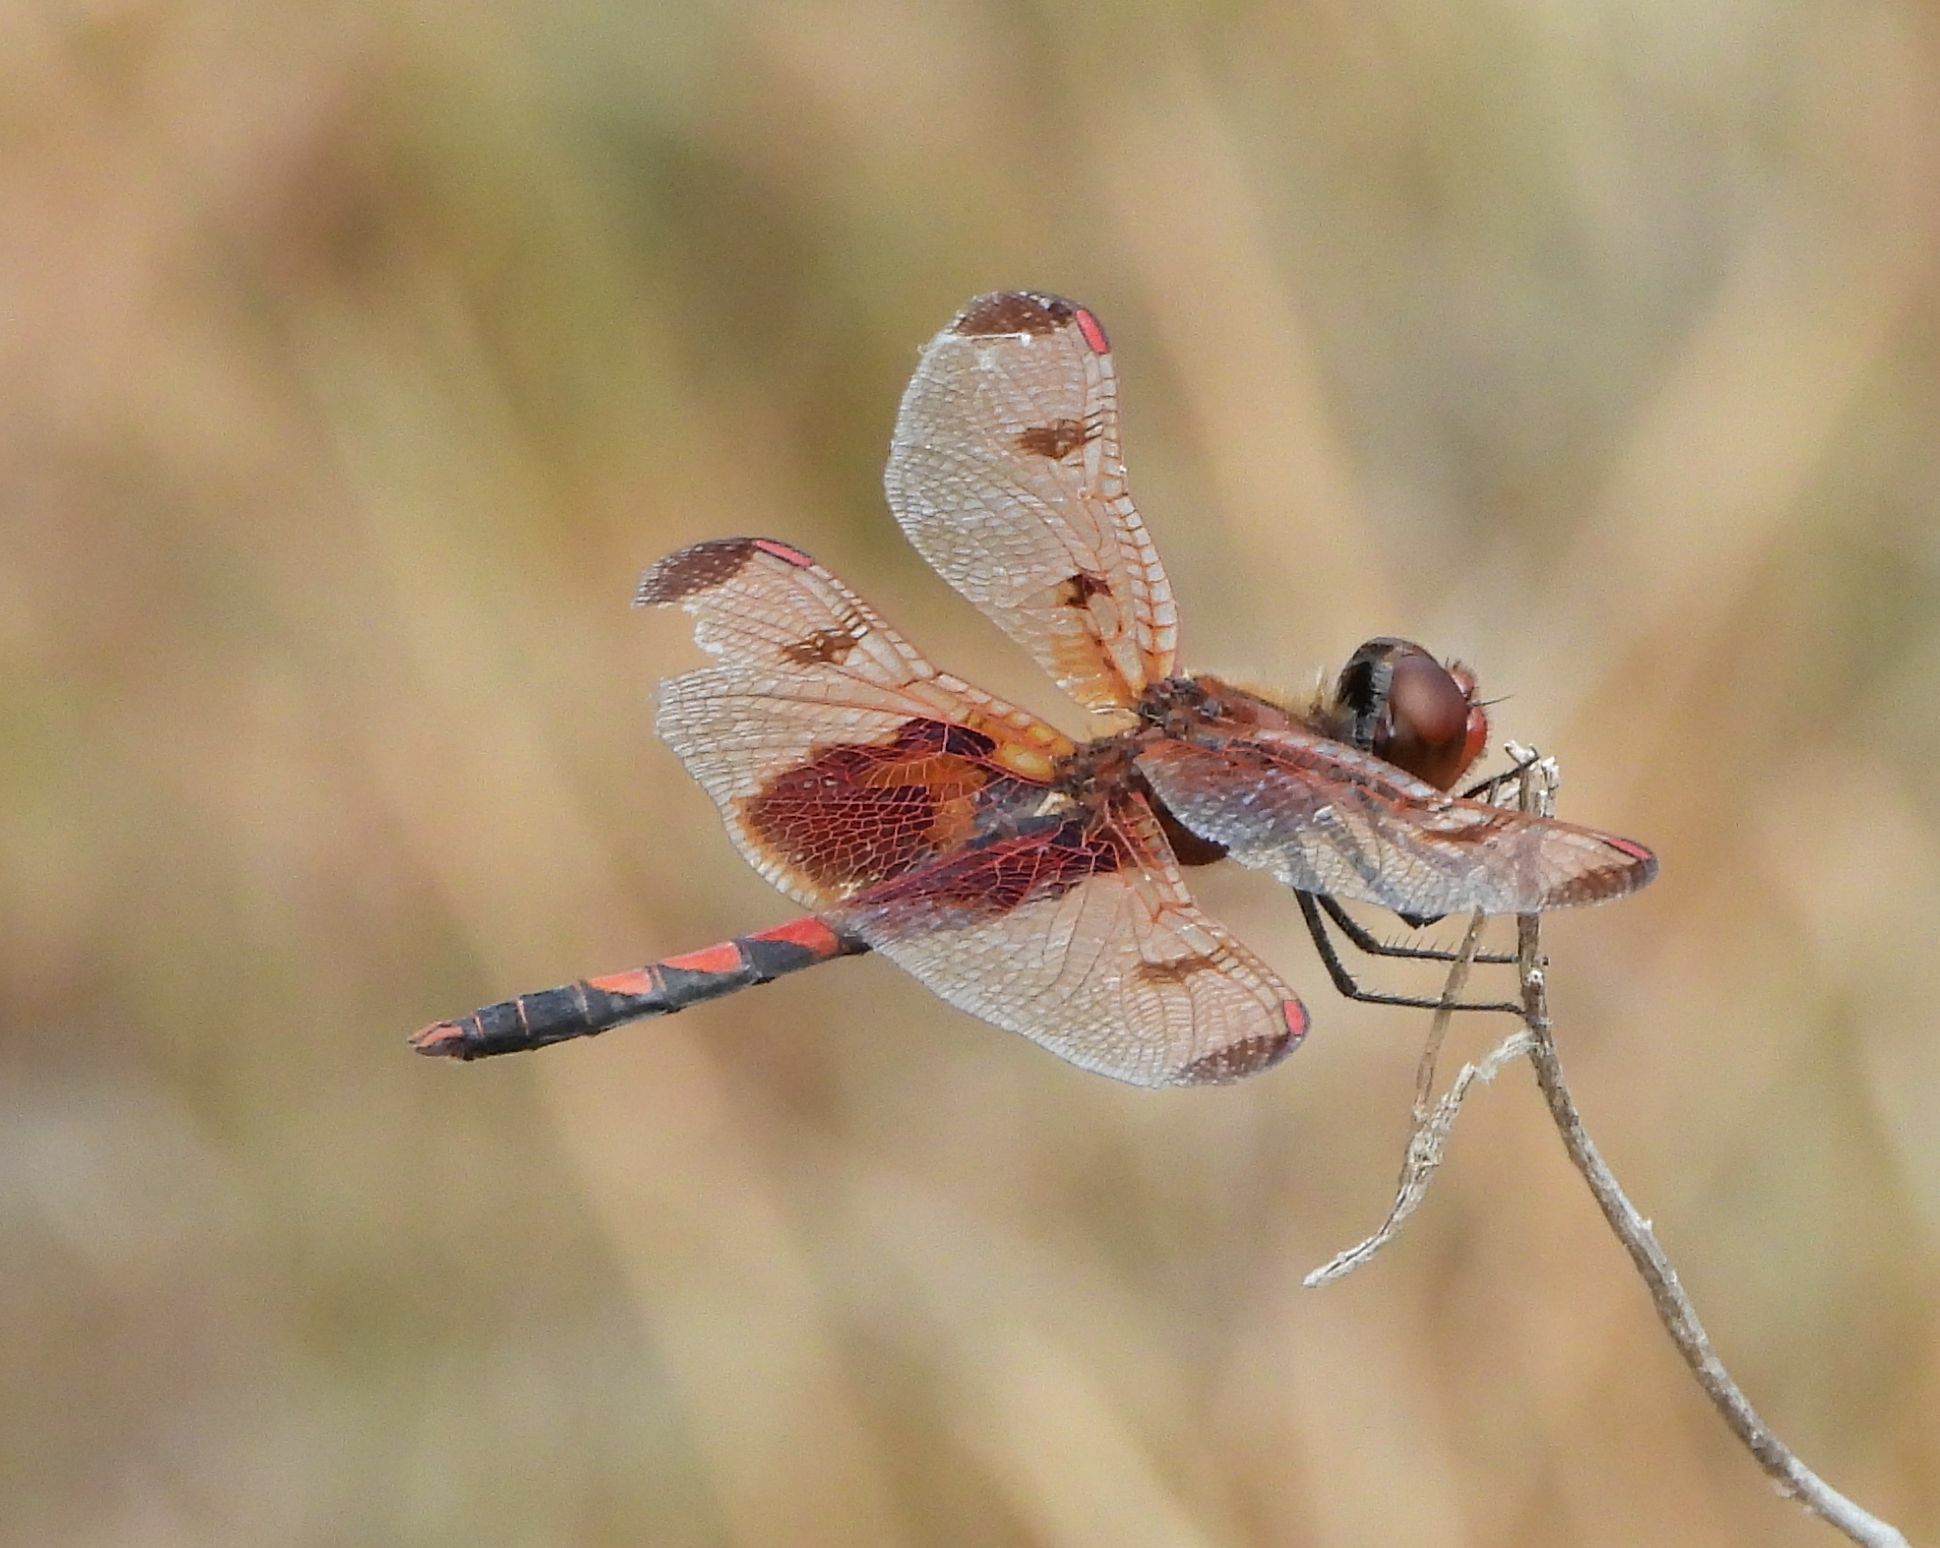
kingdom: Animalia
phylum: Arthropoda
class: Insecta
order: Odonata
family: Libellulidae
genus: Celithemis
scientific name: Celithemis elisa
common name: Calico pennant
